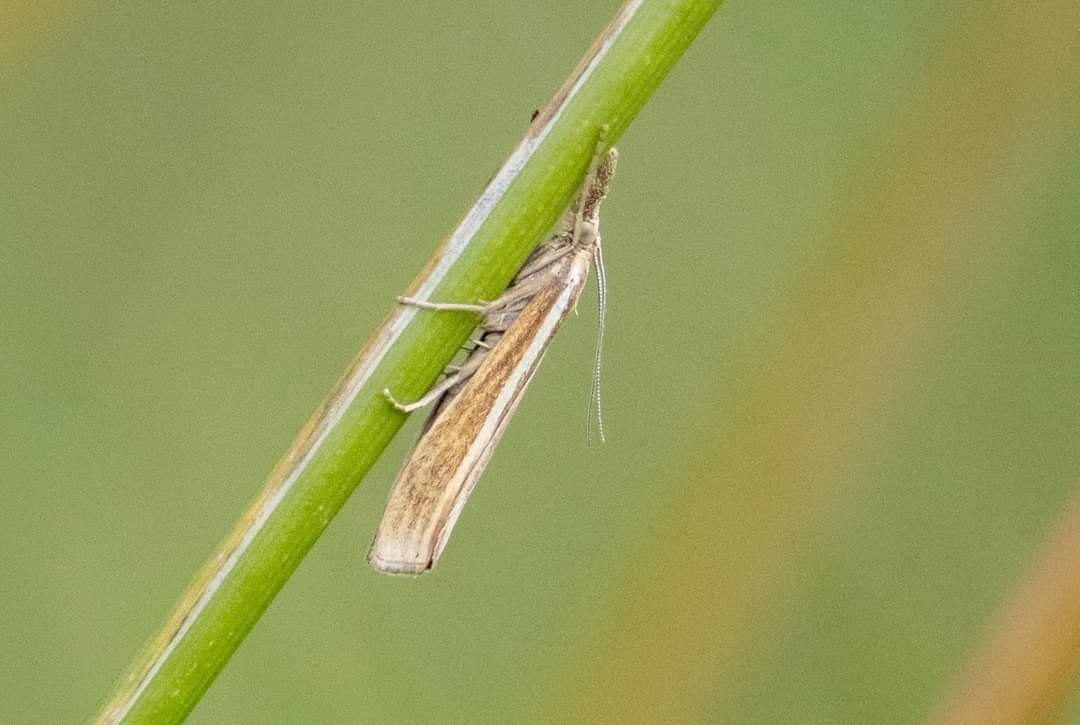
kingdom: Animalia
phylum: Arthropoda
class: Insecta
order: Lepidoptera
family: Crambidae
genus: Agriphila
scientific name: Agriphila tristellus
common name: Common grass-veneer
